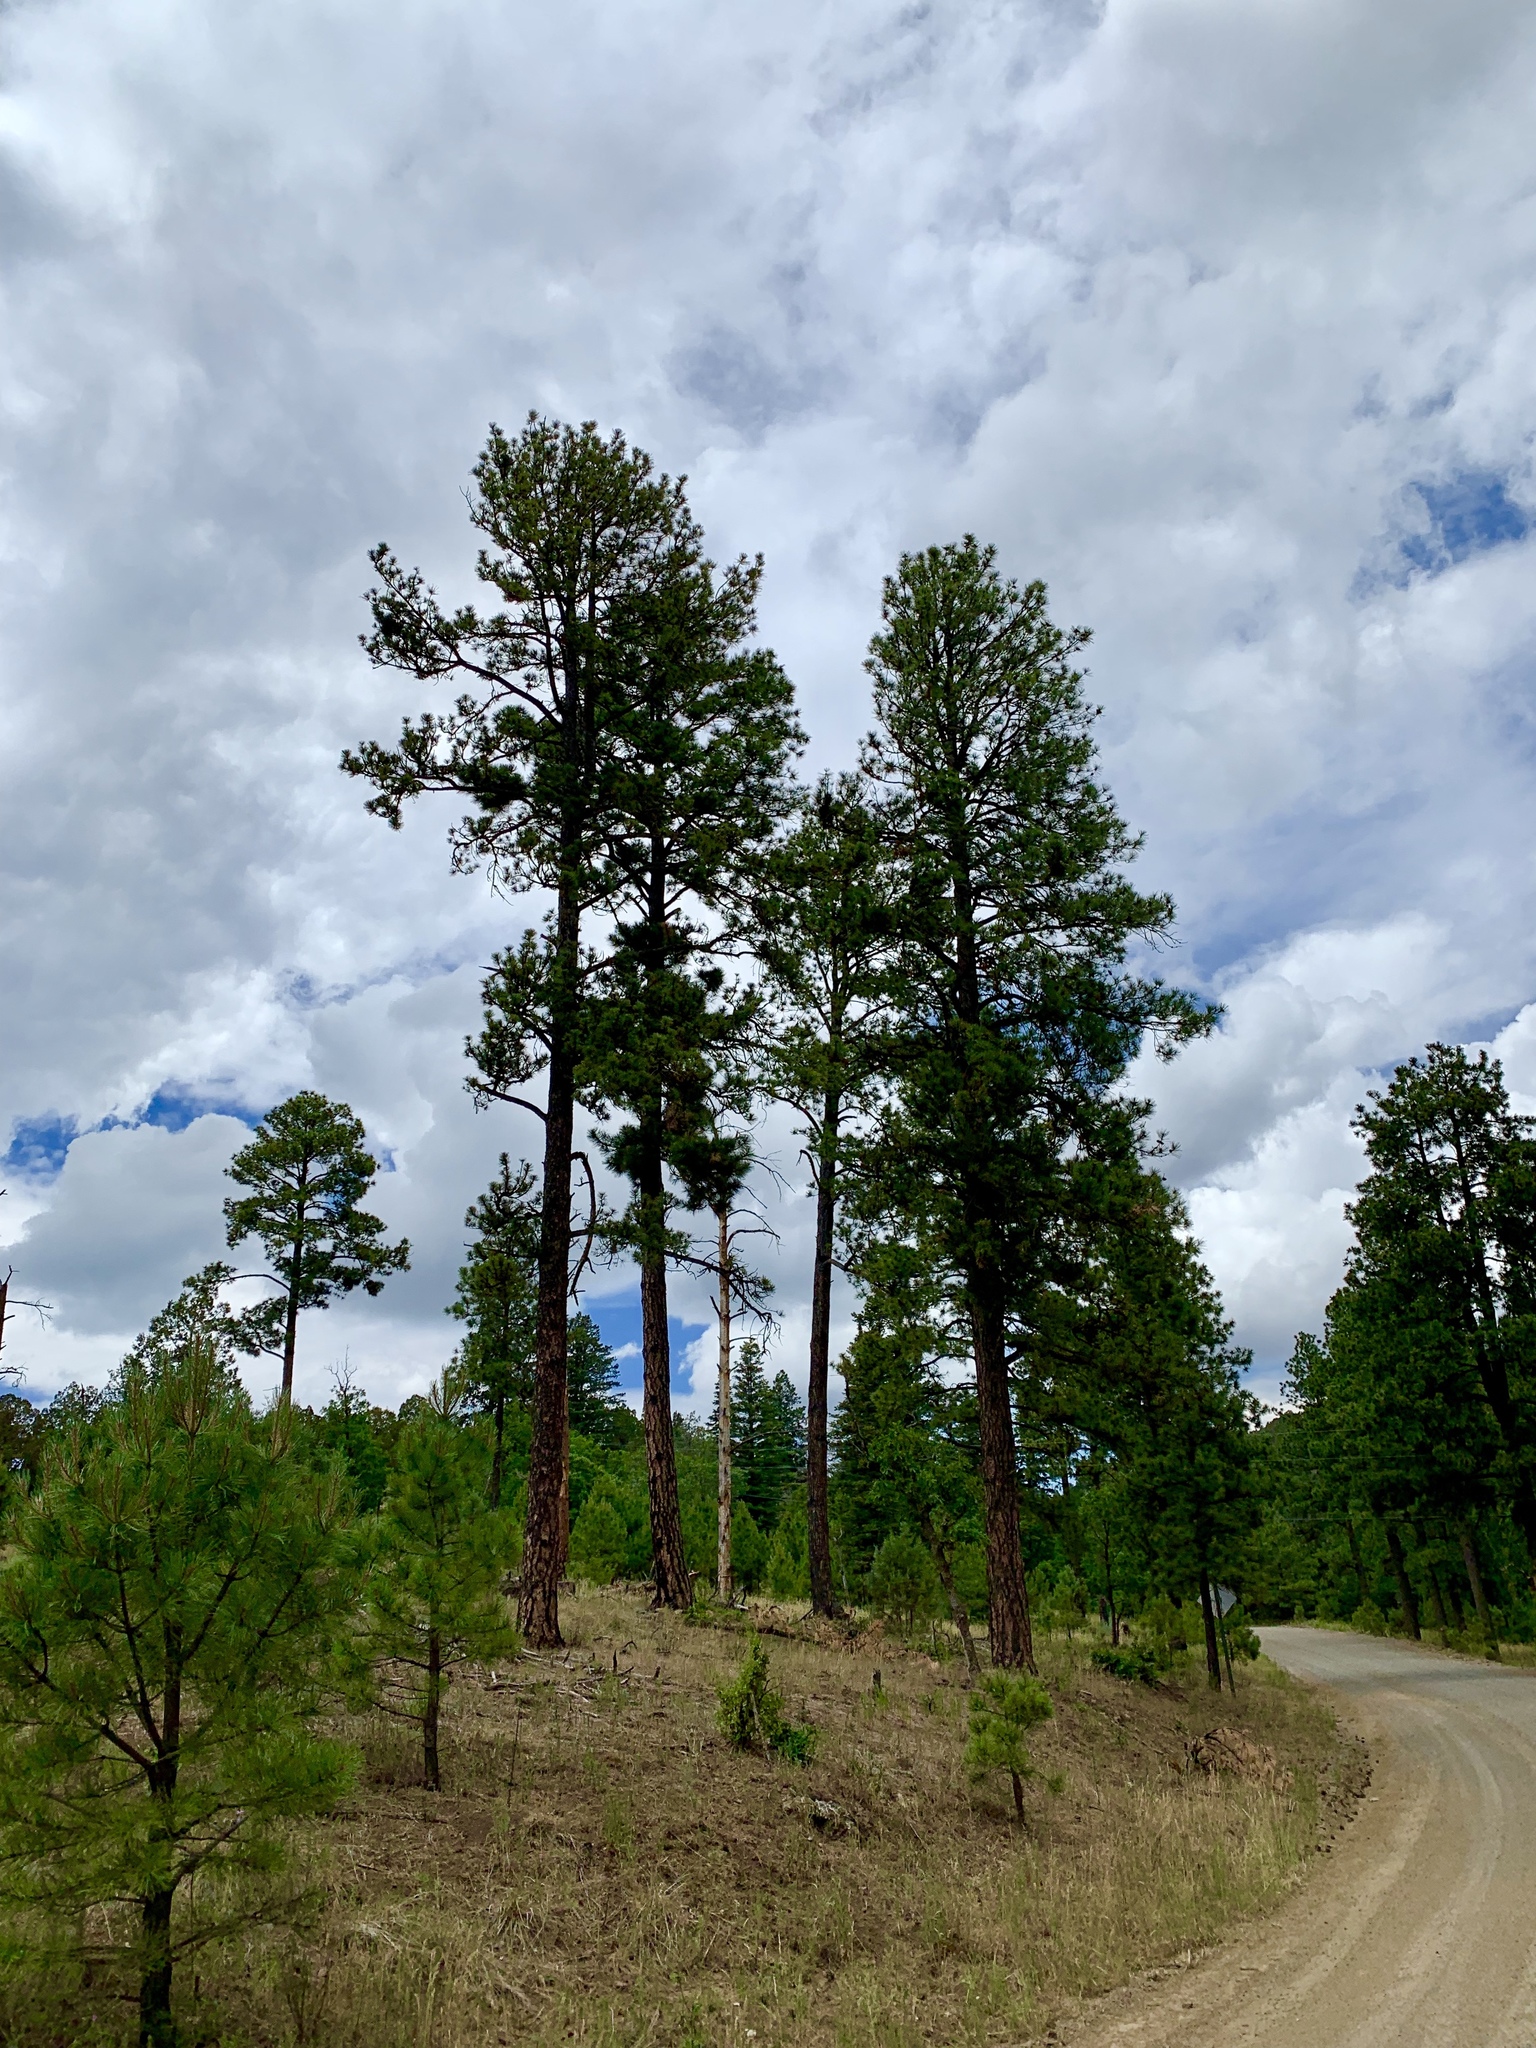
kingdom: Plantae
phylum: Tracheophyta
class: Pinopsida
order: Pinales
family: Pinaceae
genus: Pinus
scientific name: Pinus ponderosa
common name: Western yellow-pine
